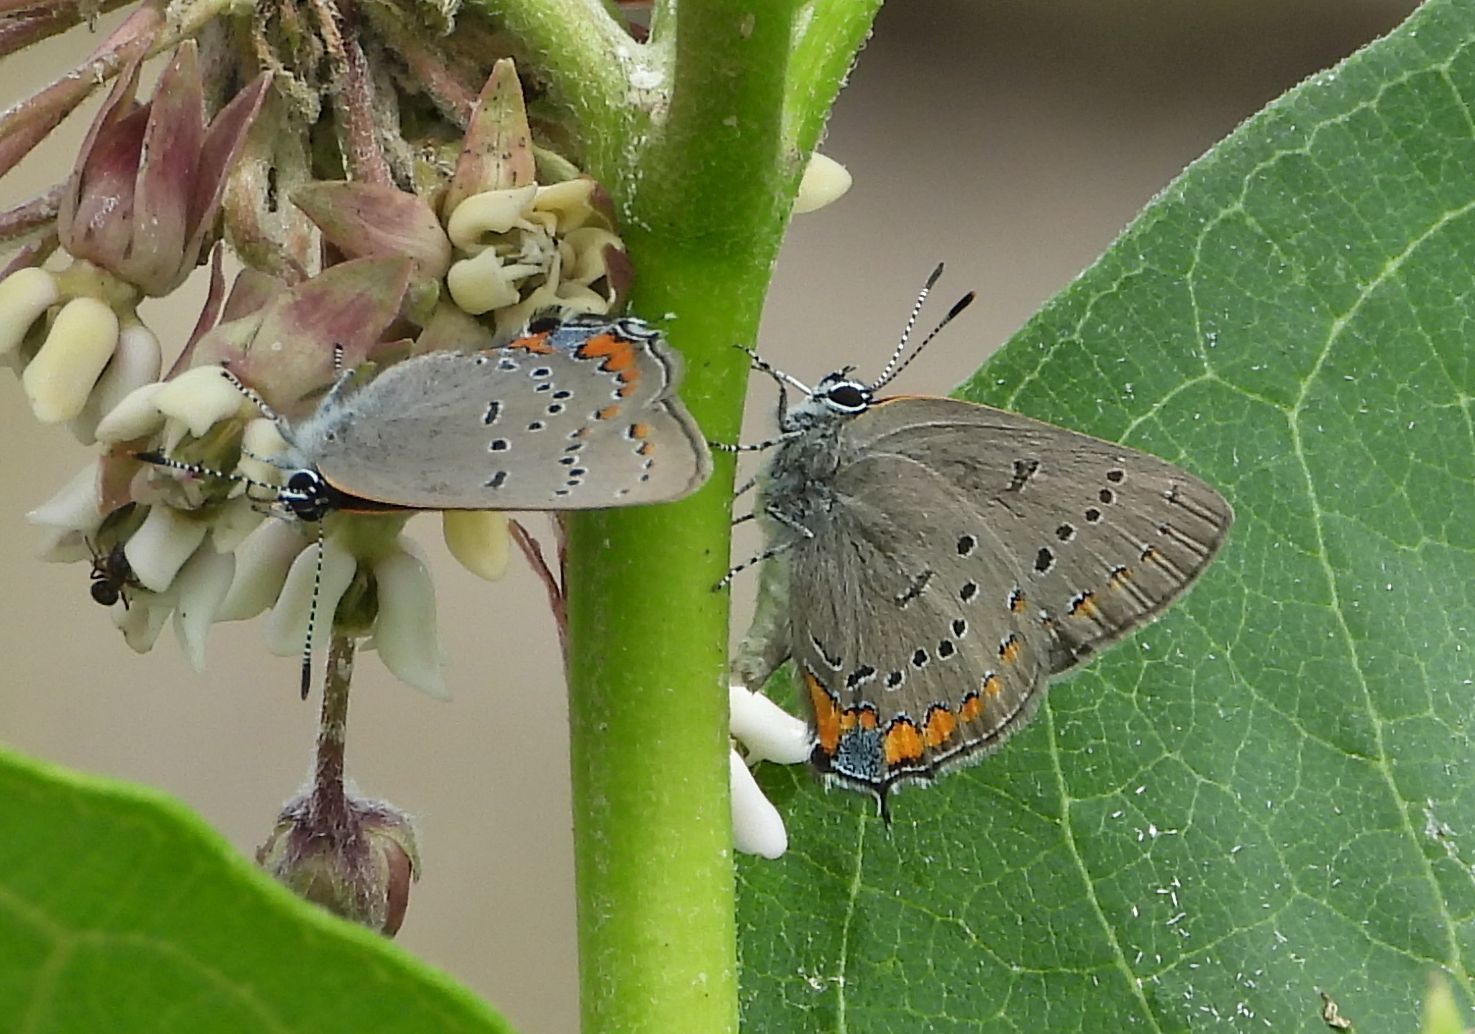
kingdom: Animalia
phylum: Arthropoda
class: Insecta
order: Lepidoptera
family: Lycaenidae
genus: Strymon
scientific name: Strymon acadica
